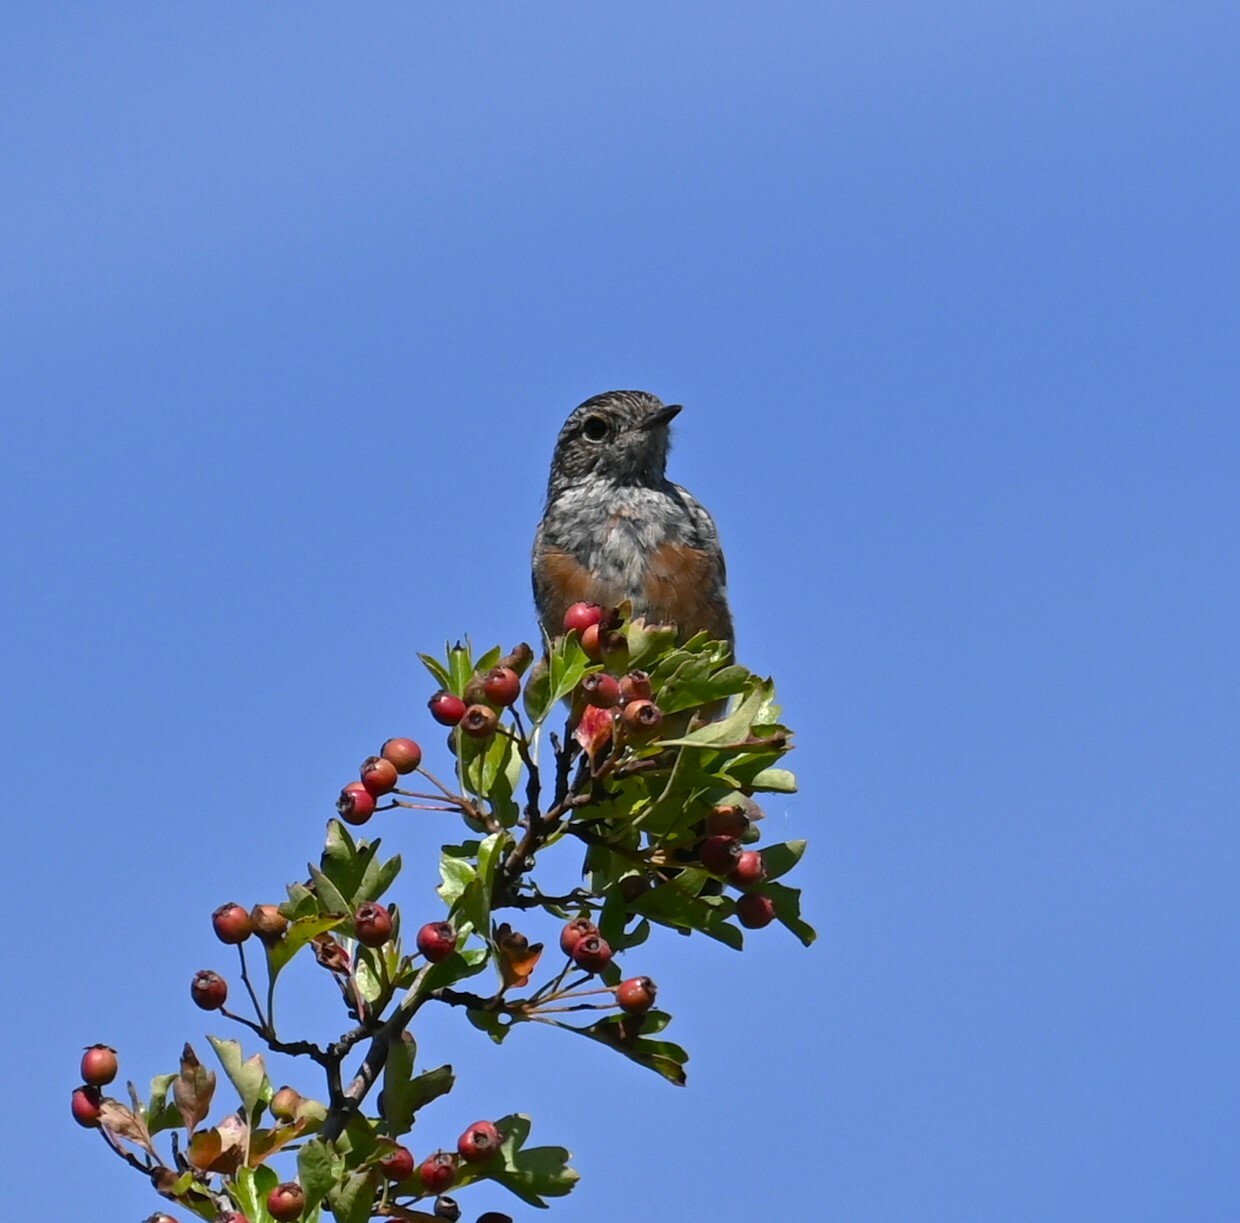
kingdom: Animalia
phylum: Chordata
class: Aves
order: Passeriformes
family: Muscicapidae
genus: Saxicola
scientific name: Saxicola rubicola
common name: European stonechat
